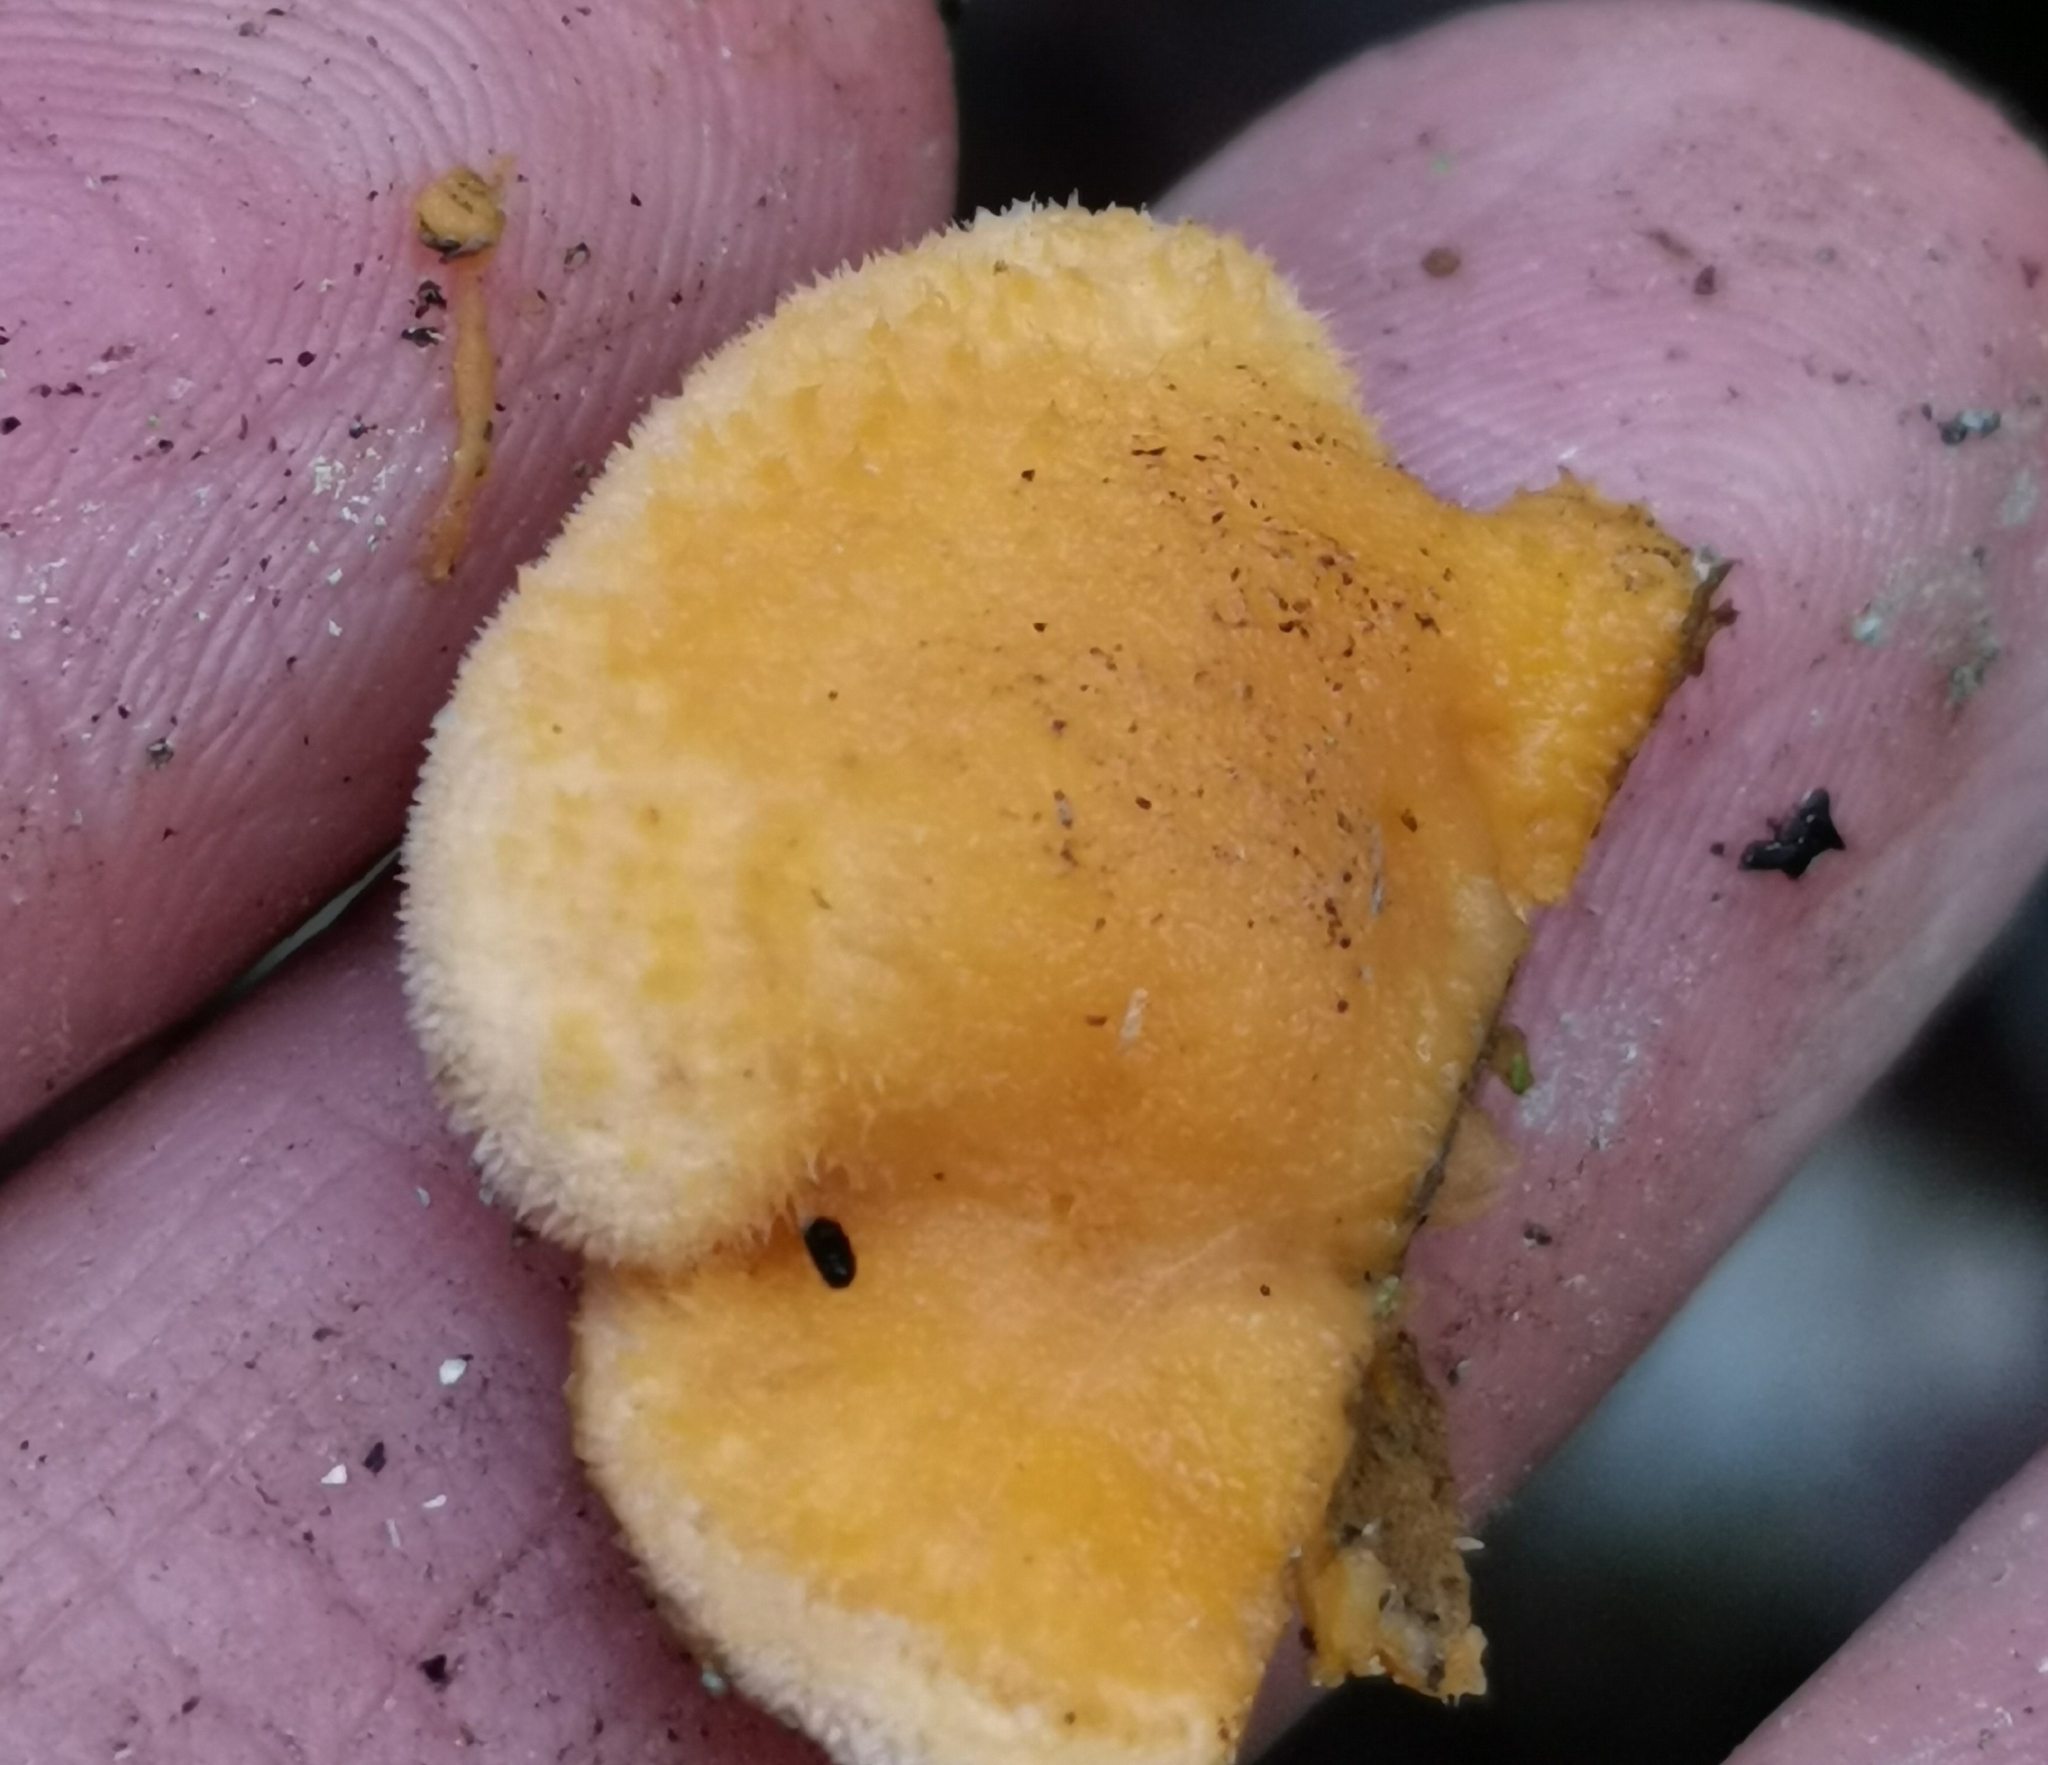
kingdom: Fungi
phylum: Basidiomycota
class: Agaricomycetes
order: Agaricales
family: Phyllotopsidaceae
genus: Phyllotopsis
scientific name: Phyllotopsis nidulans
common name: Orange mock oyster
